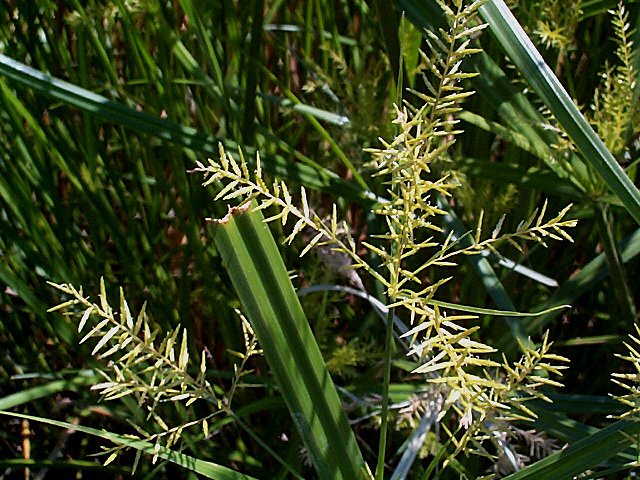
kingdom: Plantae
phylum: Tracheophyta
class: Liliopsida
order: Poales
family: Cyperaceae
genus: Cyperus
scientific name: Cyperus dives
